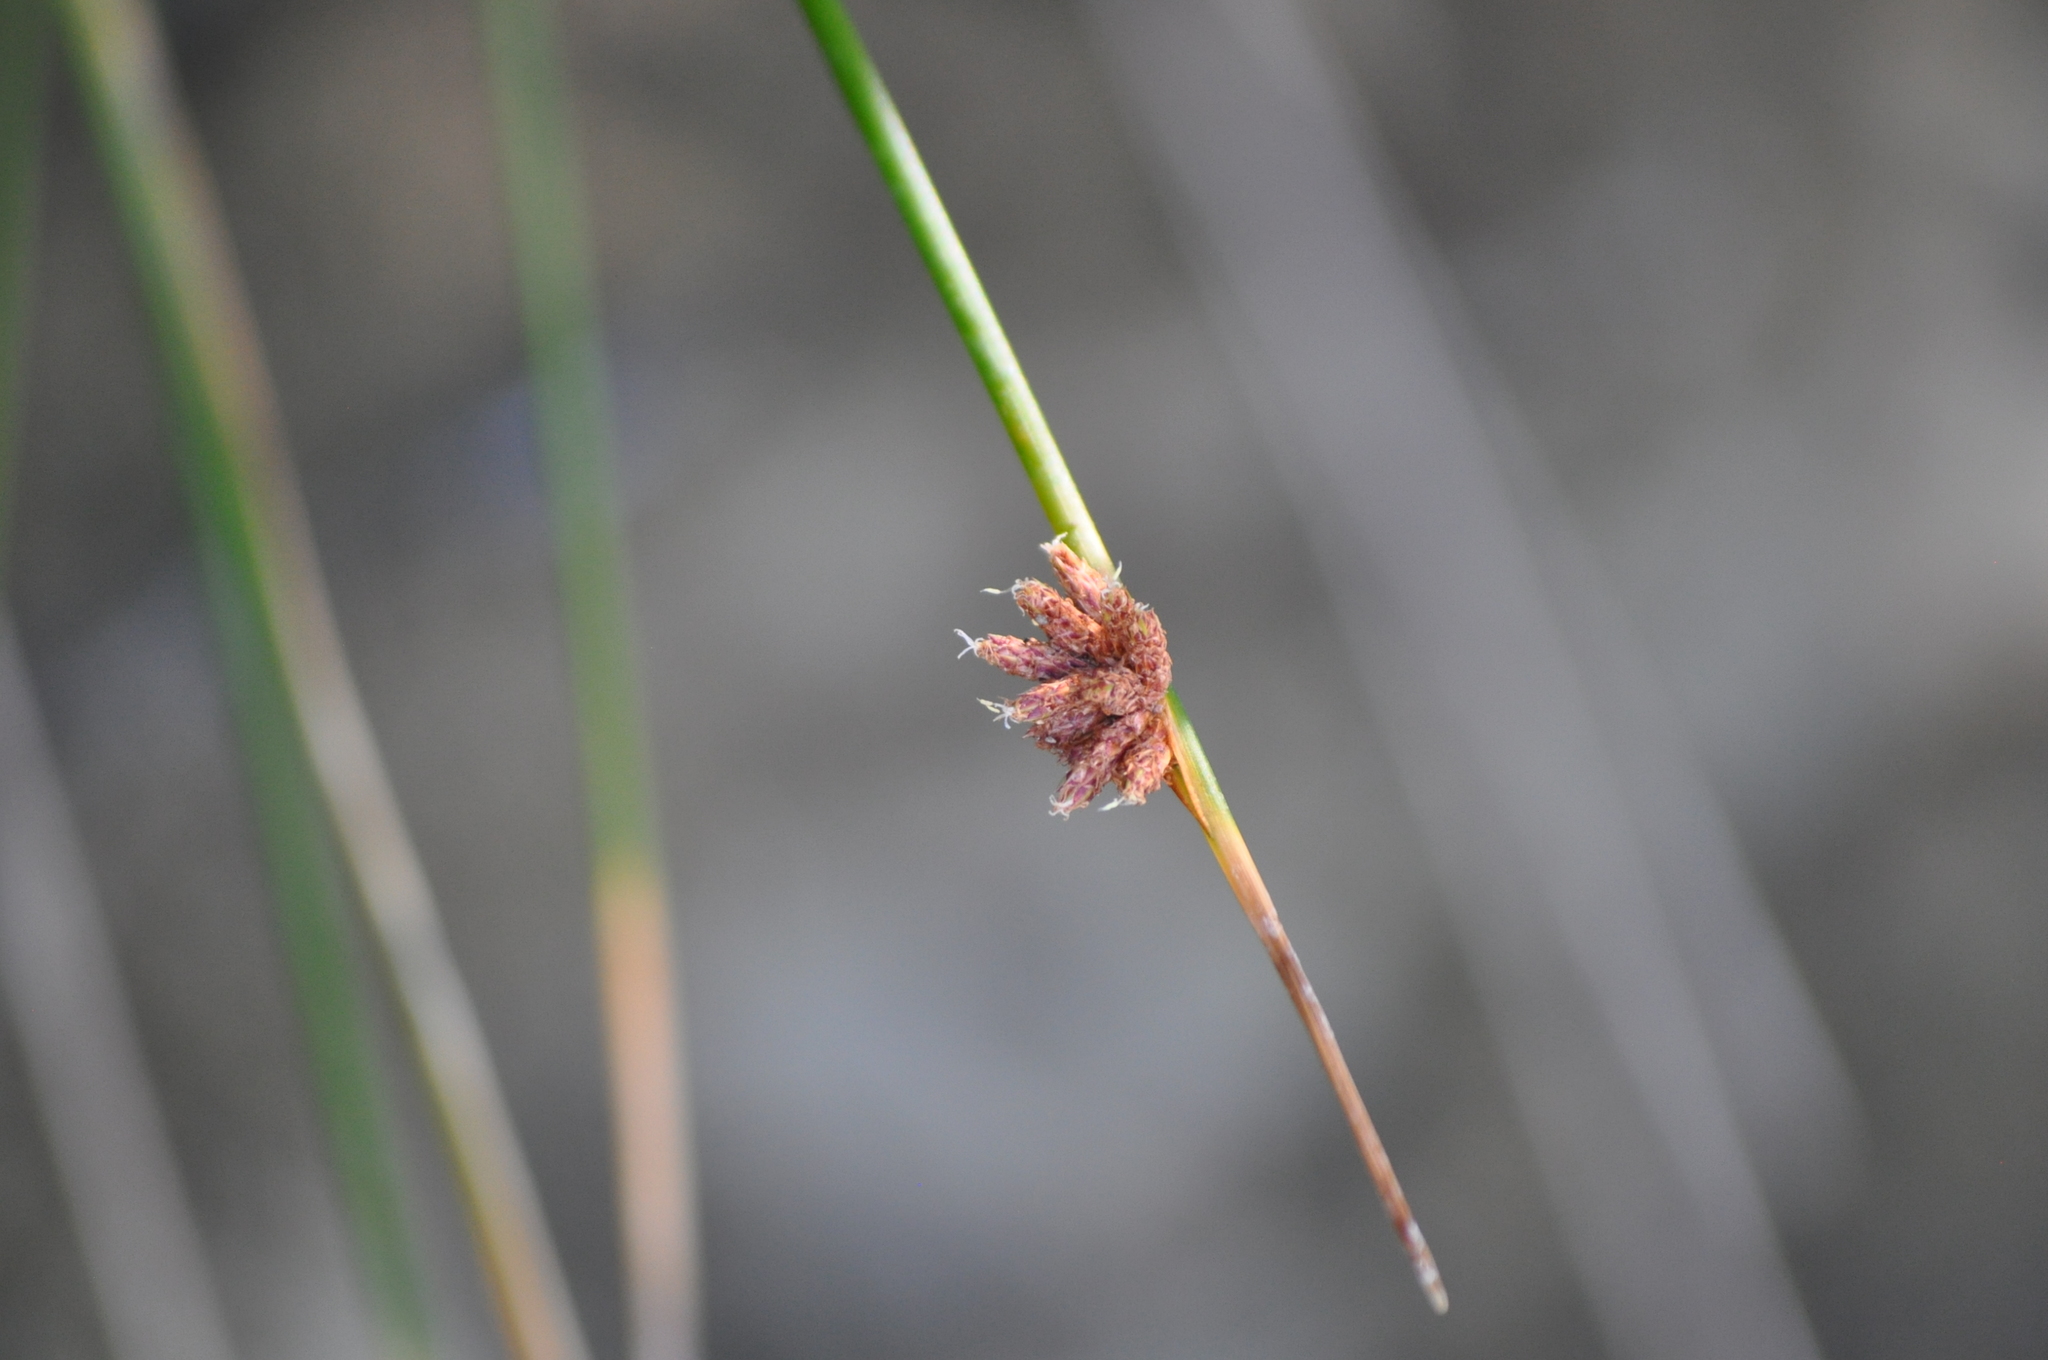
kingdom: Plantae
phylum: Tracheophyta
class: Liliopsida
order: Poales
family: Cyperaceae
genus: Ficinia
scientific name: Ficinia nodosa
